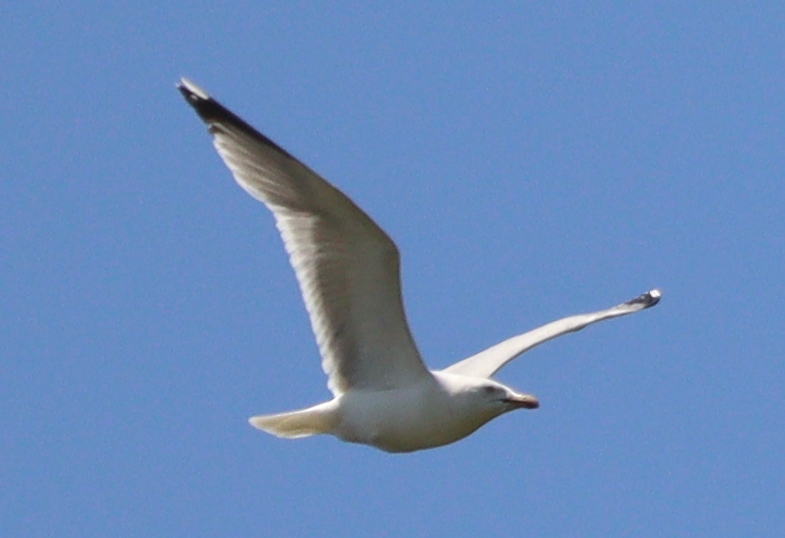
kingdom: Animalia
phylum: Chordata
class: Aves
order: Charadriiformes
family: Laridae
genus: Larus
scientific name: Larus argentatus
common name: Herring gull
